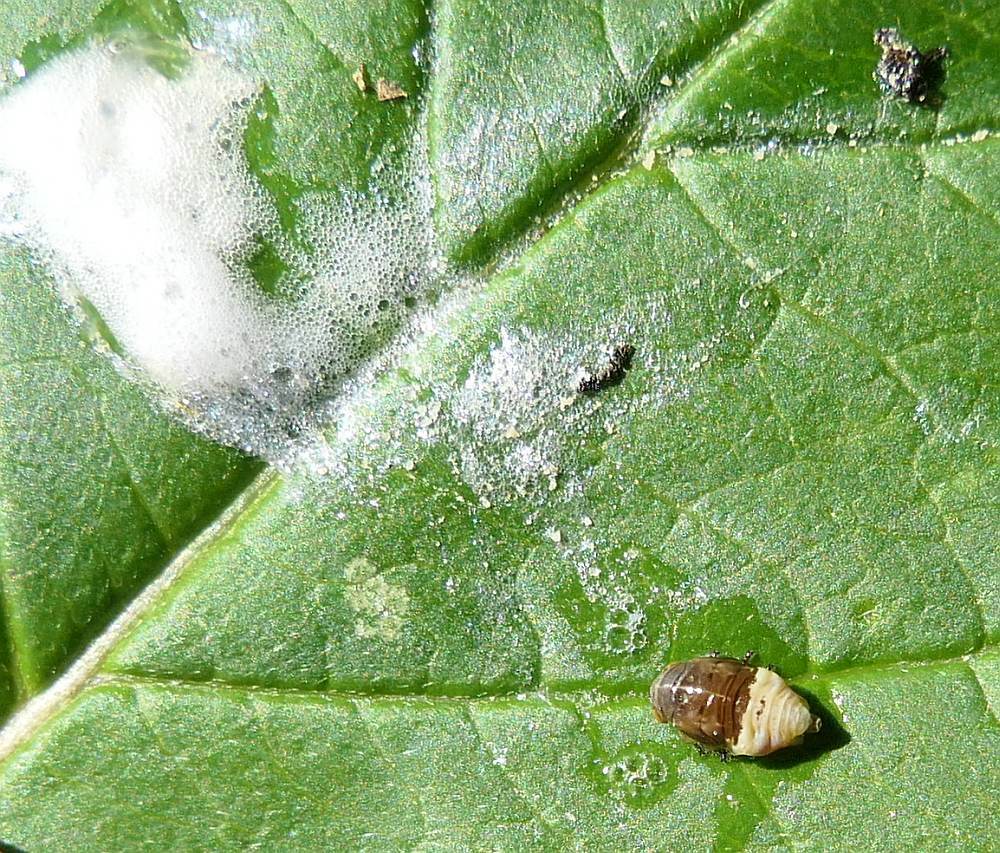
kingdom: Animalia
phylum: Arthropoda
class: Insecta
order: Hemiptera
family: Clastopteridae
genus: Clastoptera
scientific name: Clastoptera proteus
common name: Dogwood spittlebug
